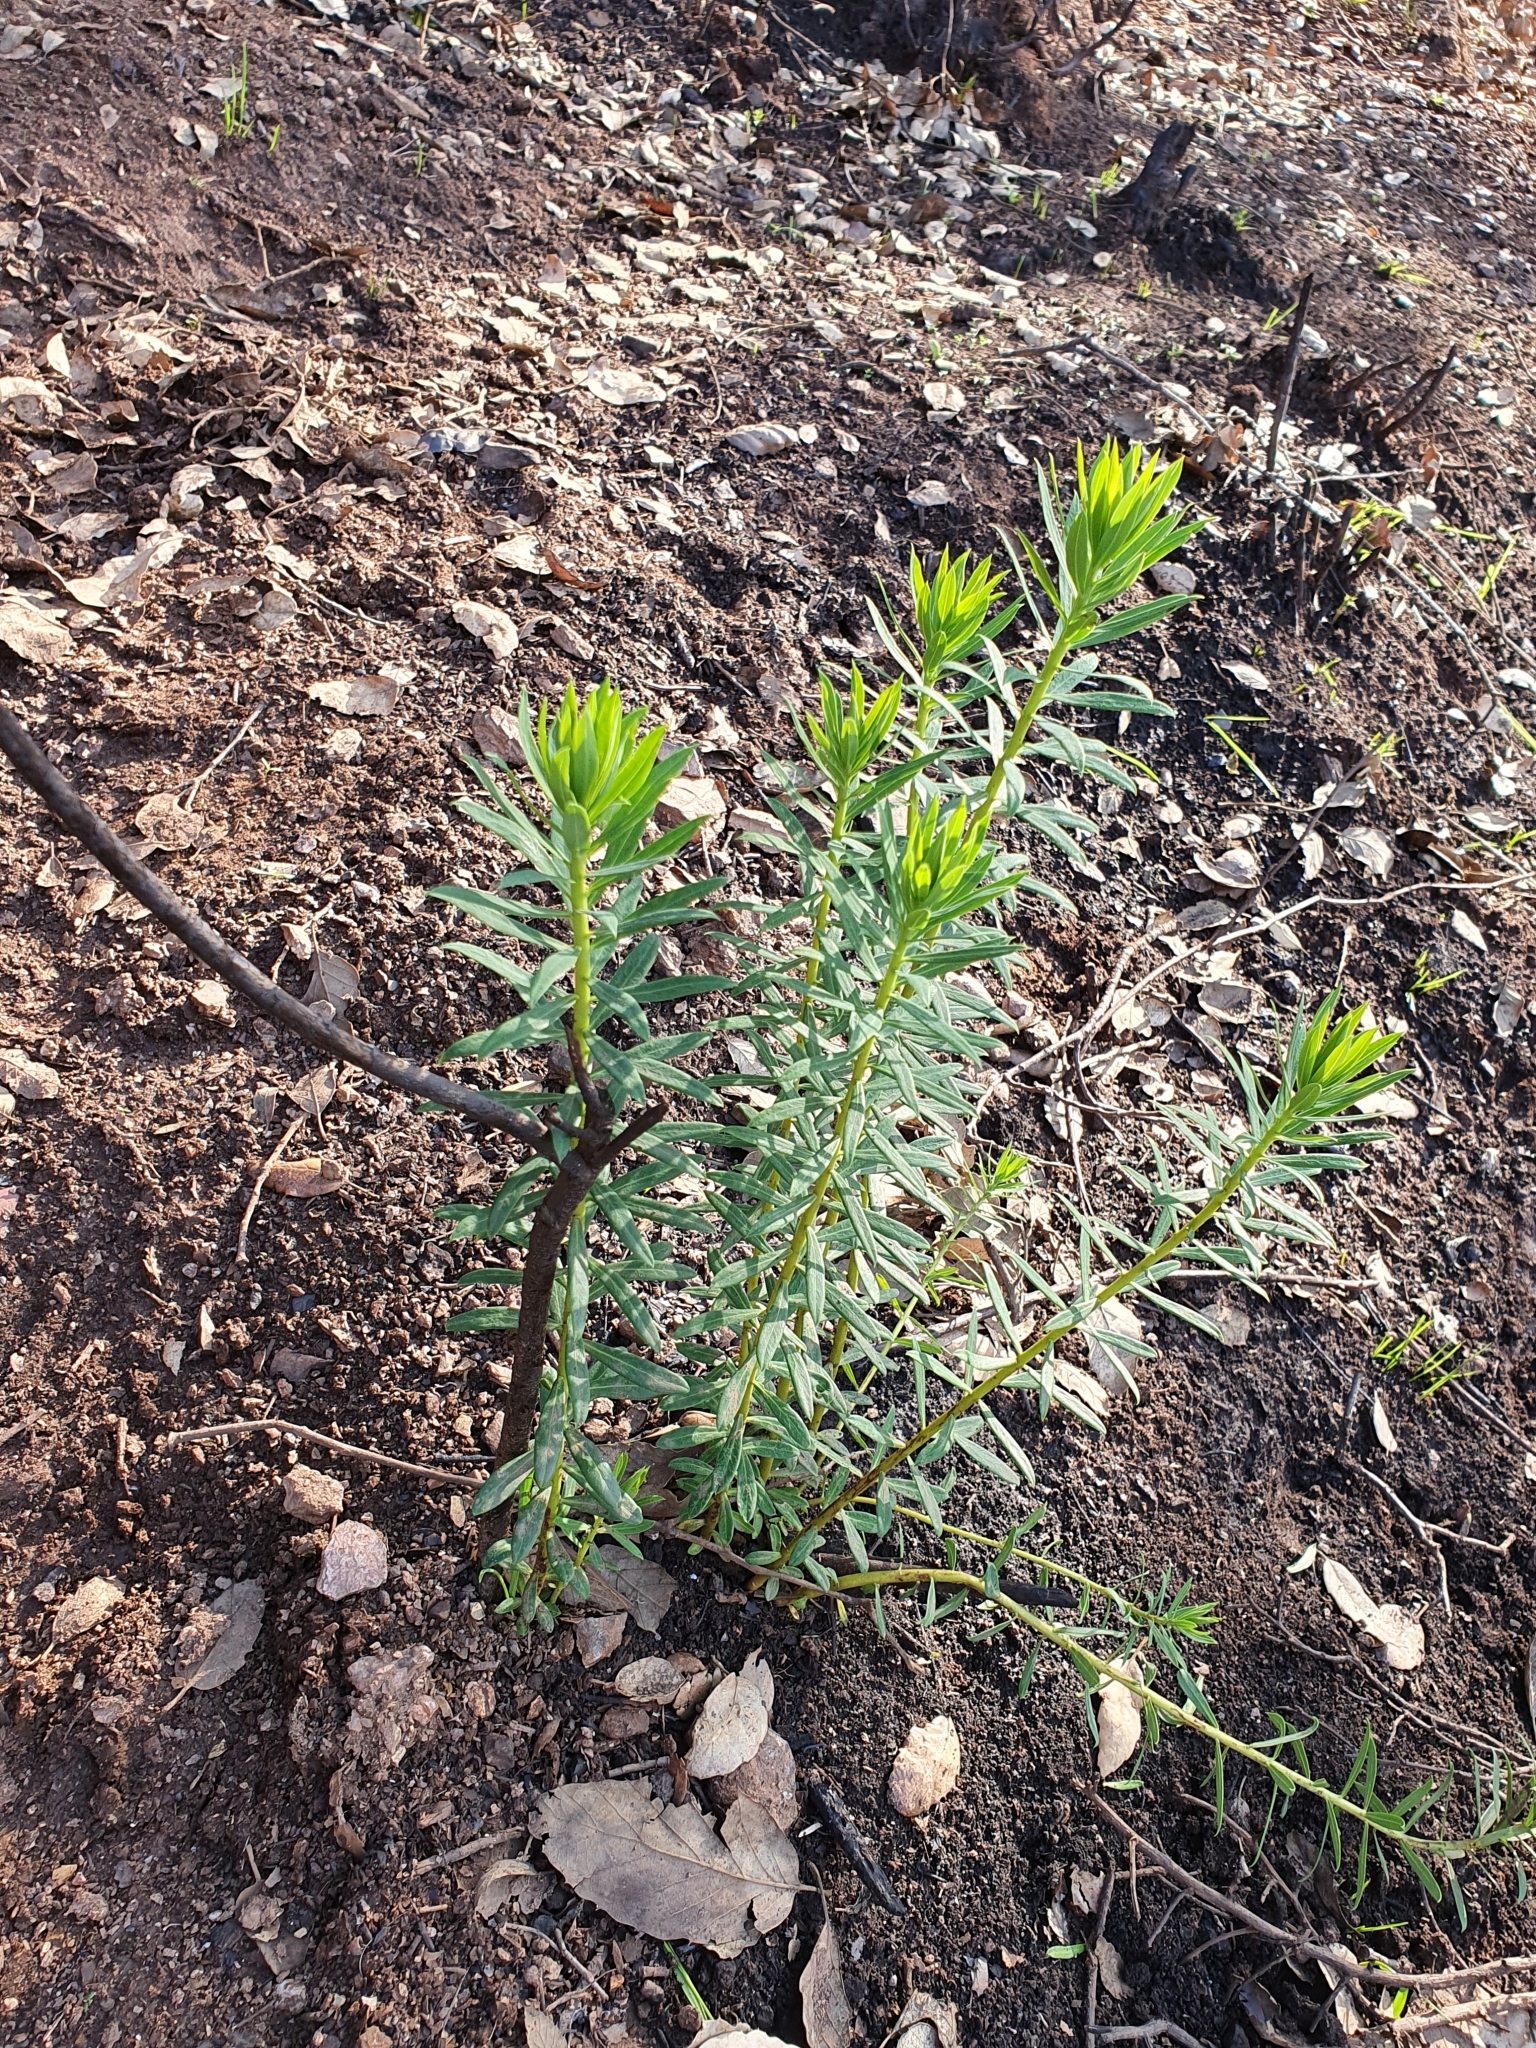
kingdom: Plantae
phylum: Tracheophyta
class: Magnoliopsida
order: Malvales
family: Thymelaeaceae
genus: Daphne
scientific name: Daphne gnidium
